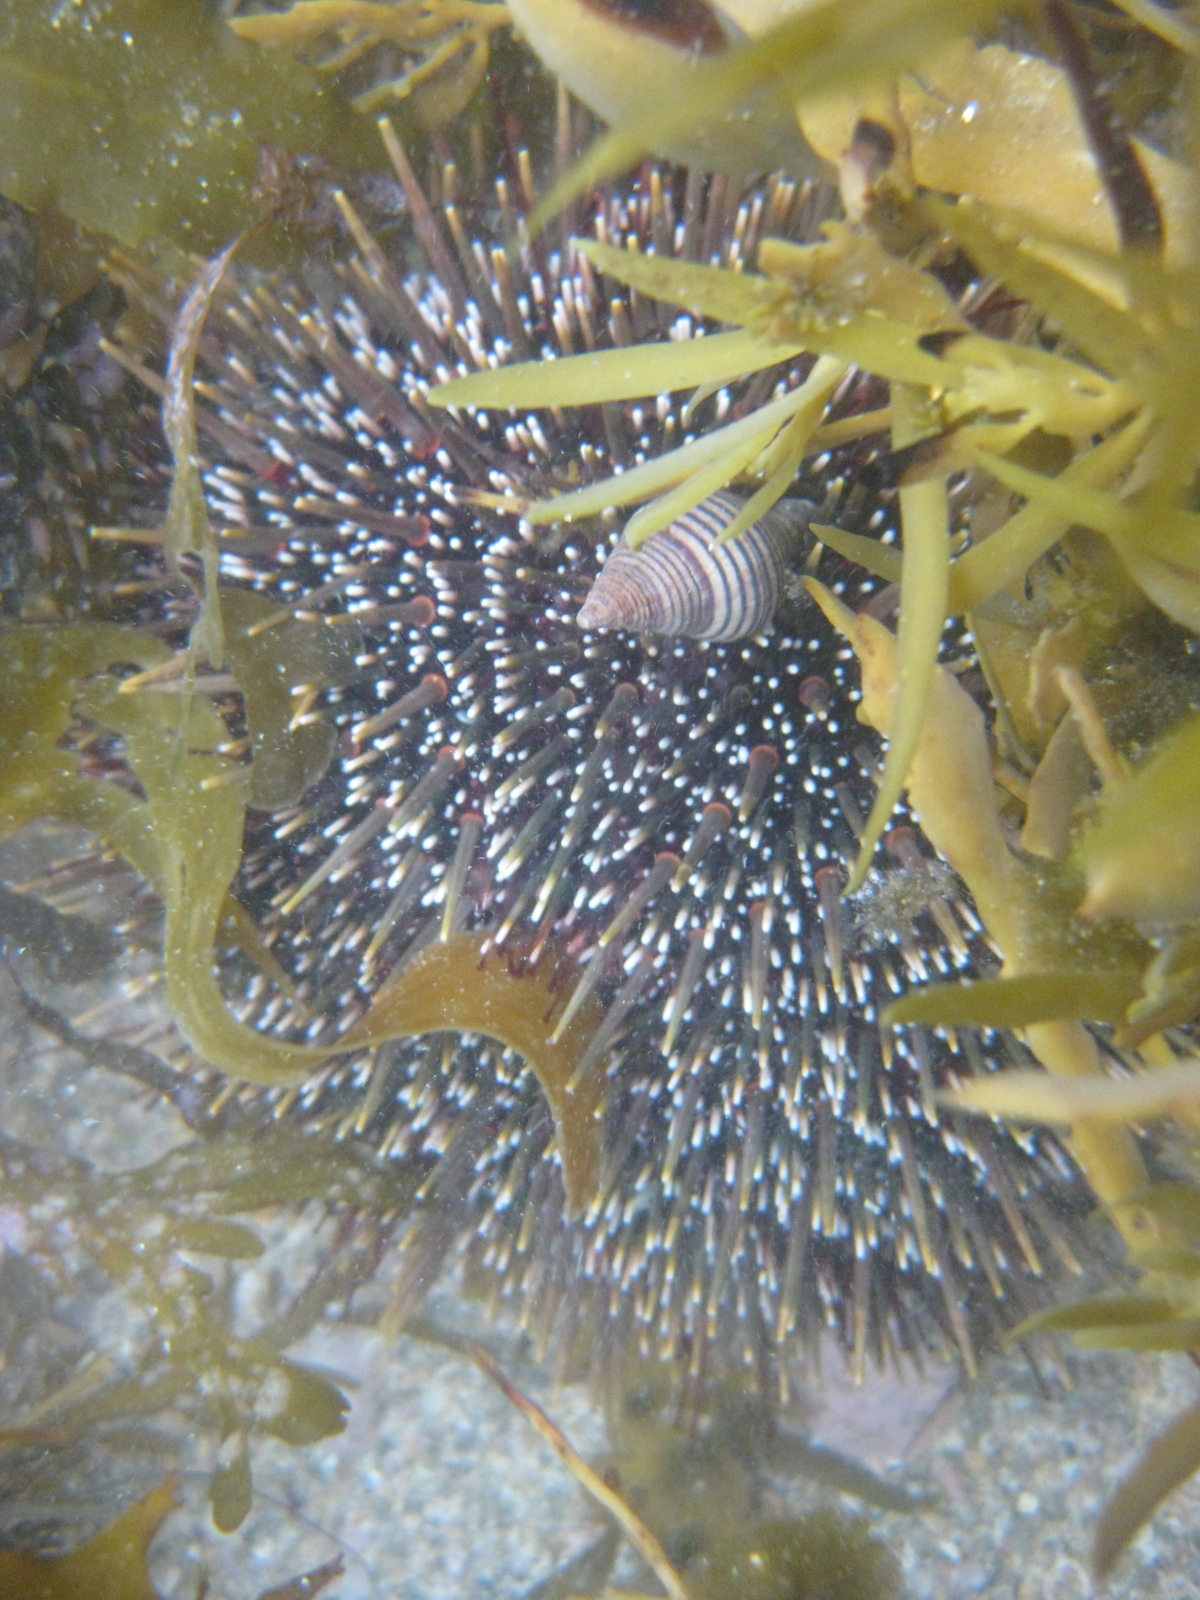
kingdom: Animalia
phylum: Echinodermata
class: Echinoidea
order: Camarodonta
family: Echinometridae
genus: Evechinus
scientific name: Evechinus chloroticus
